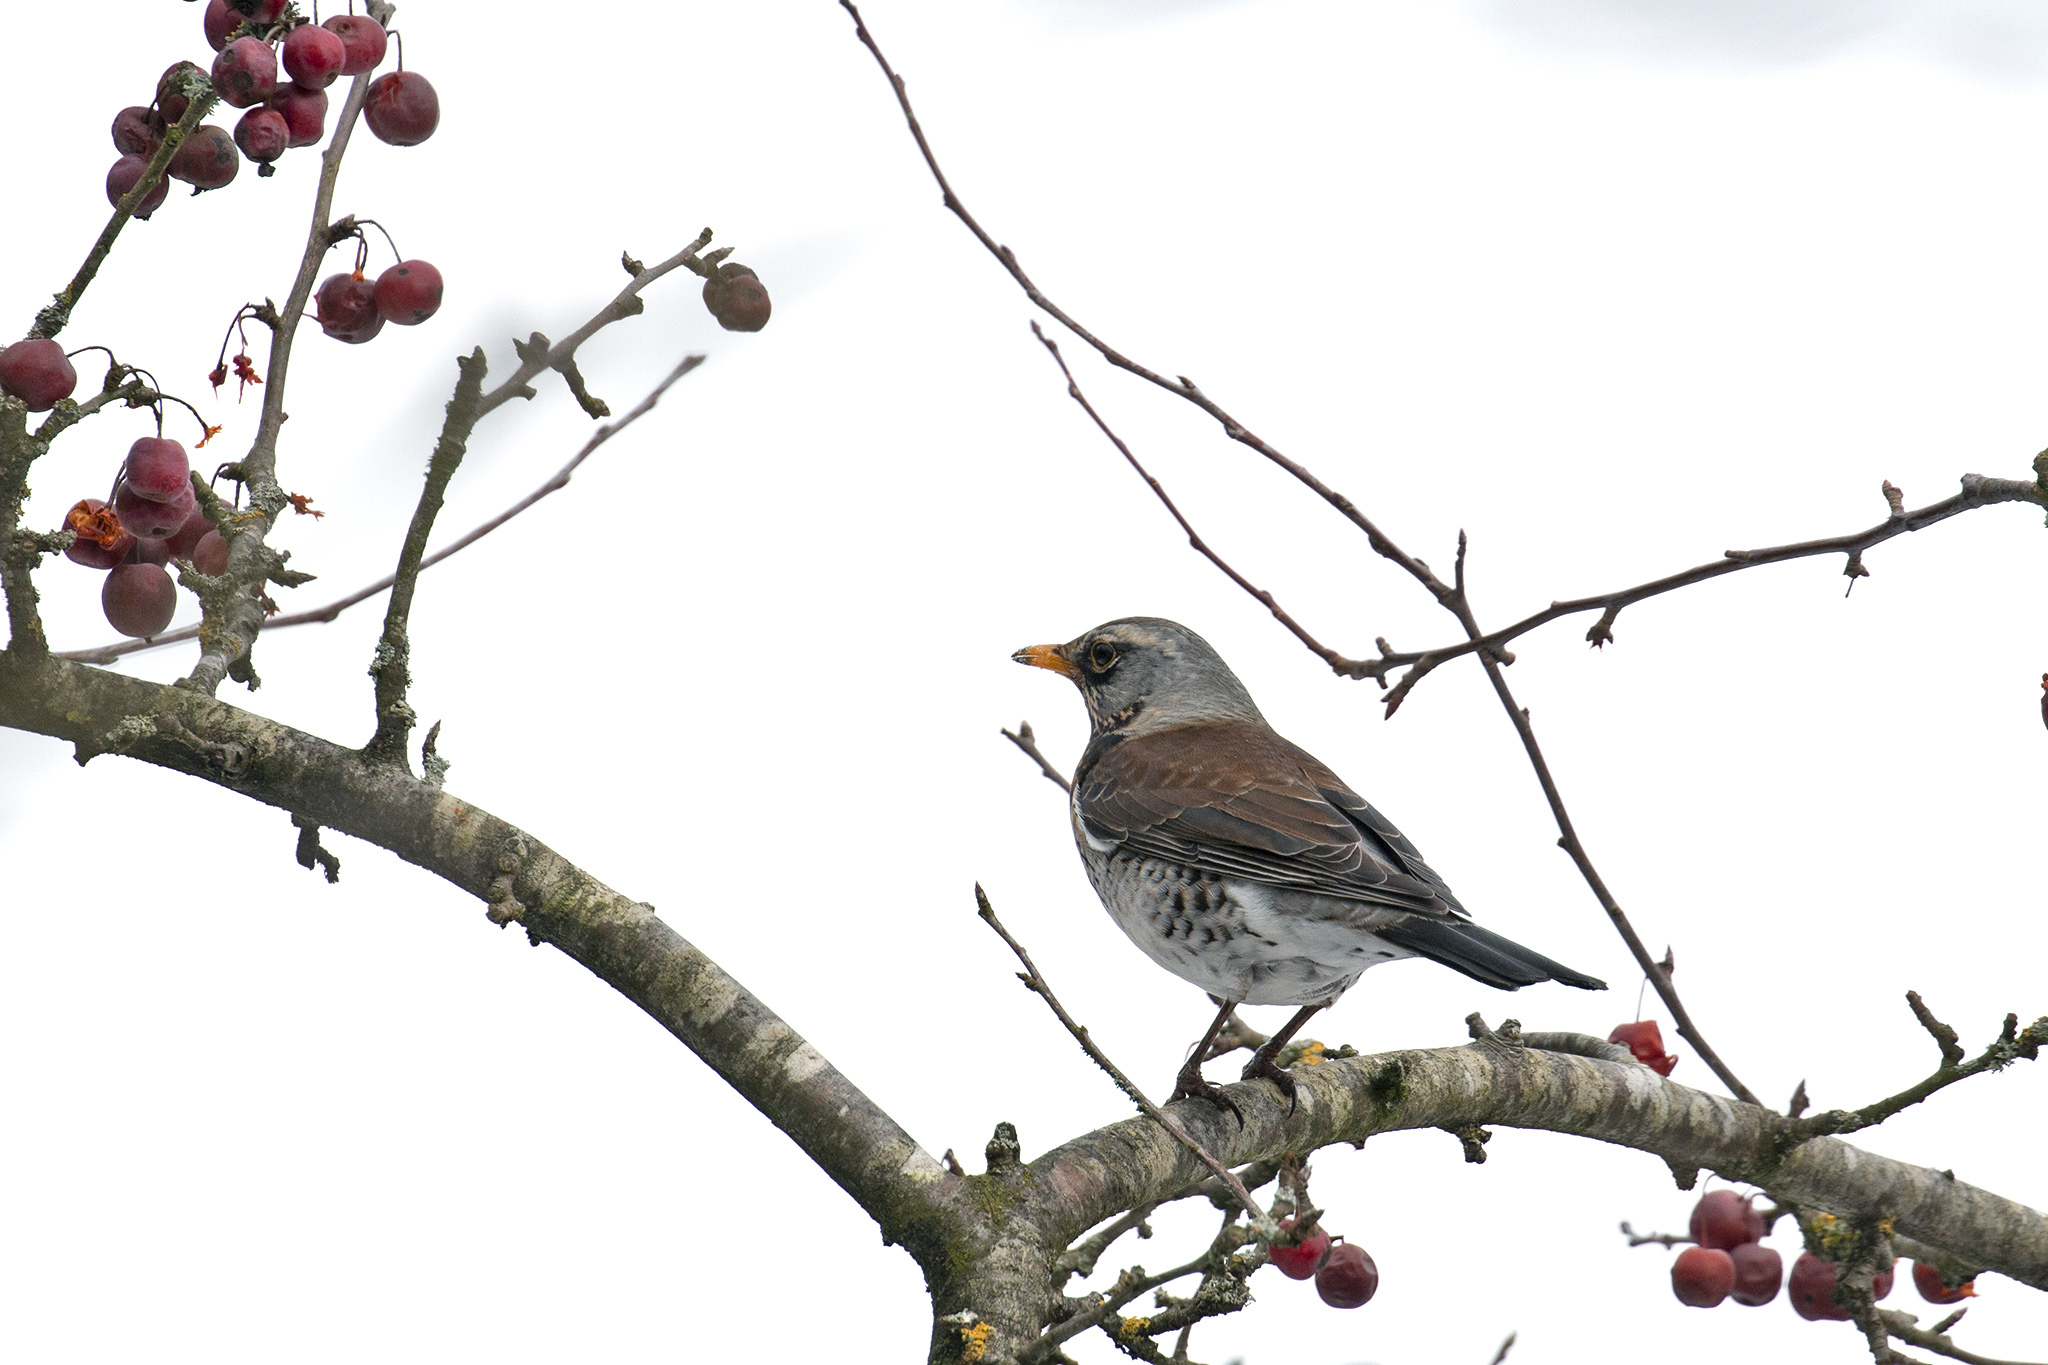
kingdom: Animalia
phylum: Chordata
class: Aves
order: Passeriformes
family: Turdidae
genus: Turdus
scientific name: Turdus pilaris
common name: Fieldfare
